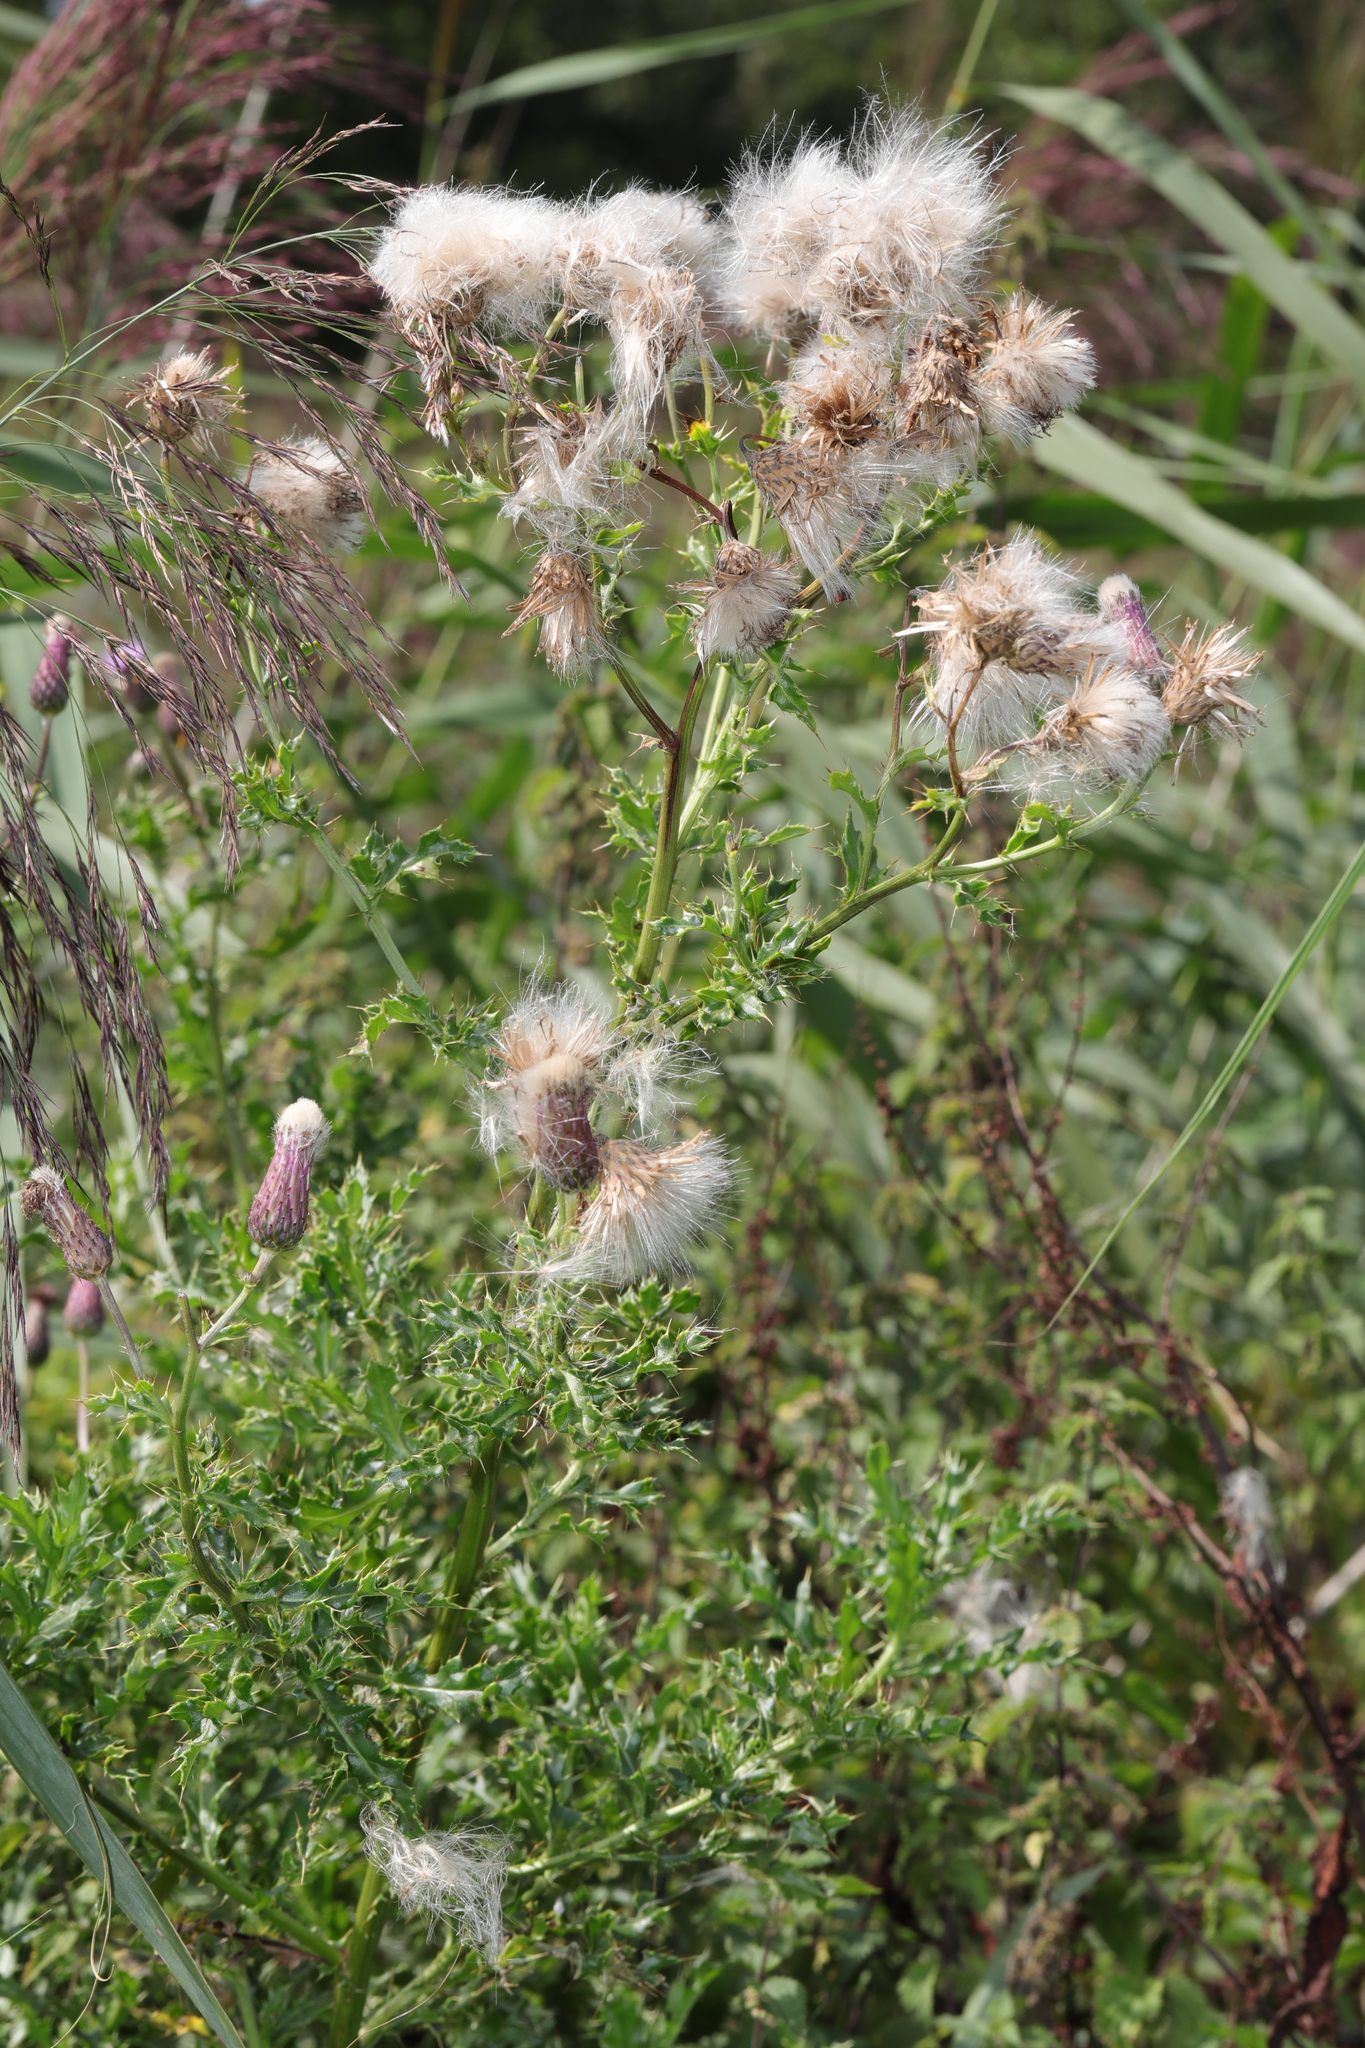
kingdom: Plantae
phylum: Tracheophyta
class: Magnoliopsida
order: Asterales
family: Asteraceae
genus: Cirsium
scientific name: Cirsium arvense
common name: Creeping thistle
